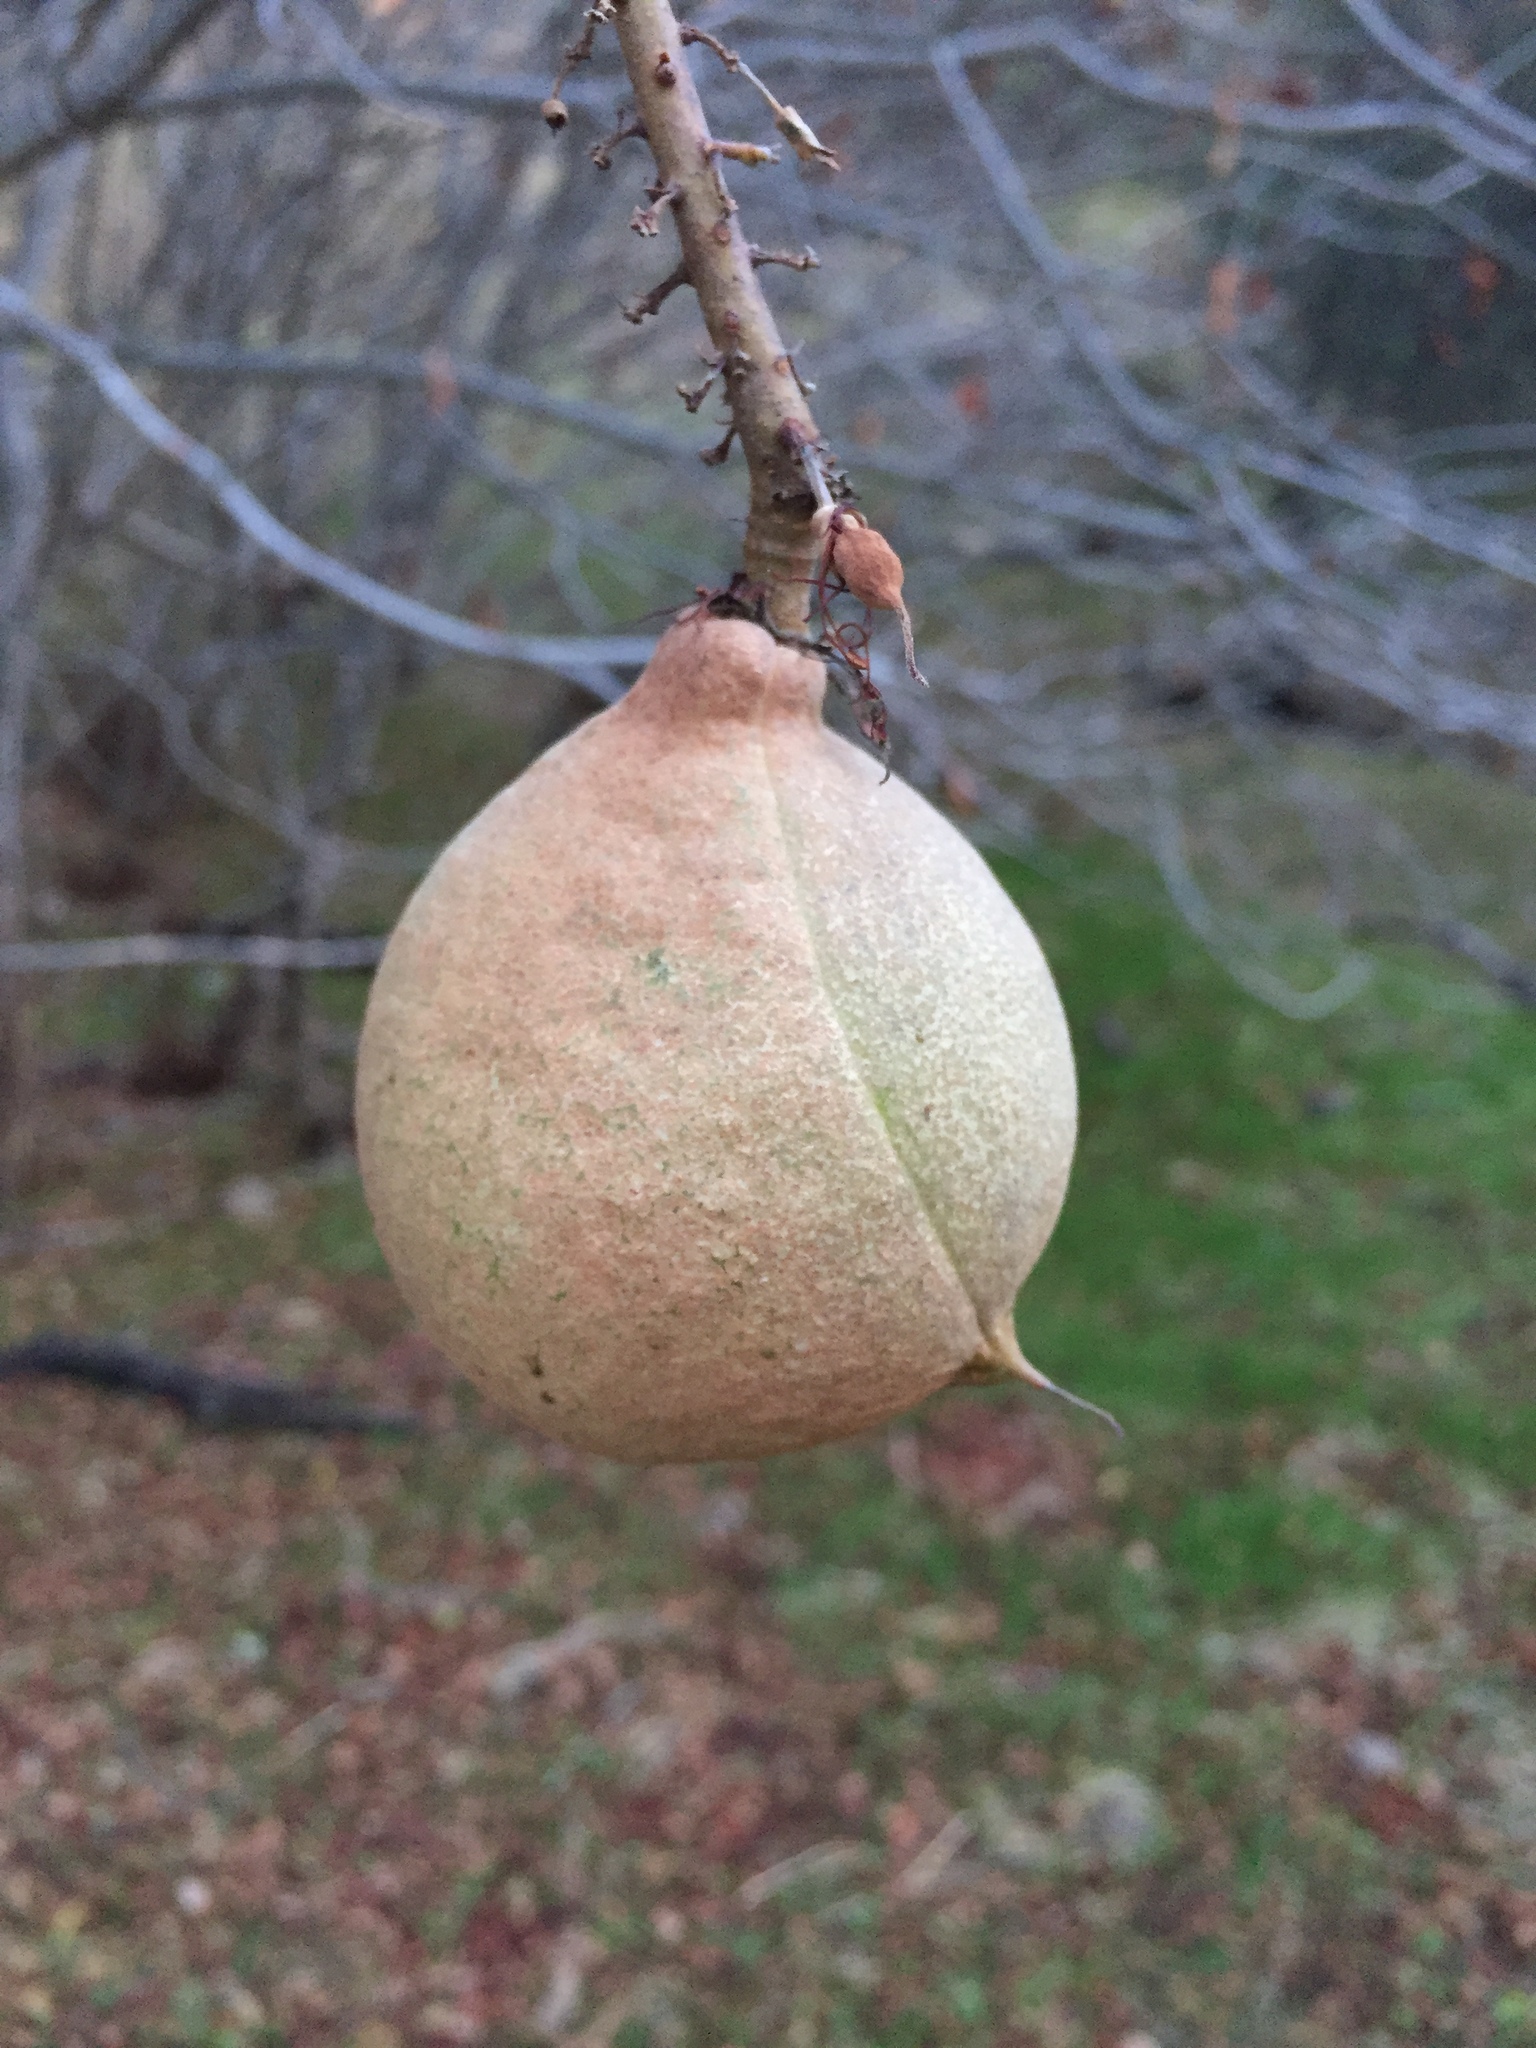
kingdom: Plantae
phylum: Tracheophyta
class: Magnoliopsida
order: Sapindales
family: Sapindaceae
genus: Aesculus
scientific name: Aesculus californica
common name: California buckeye
